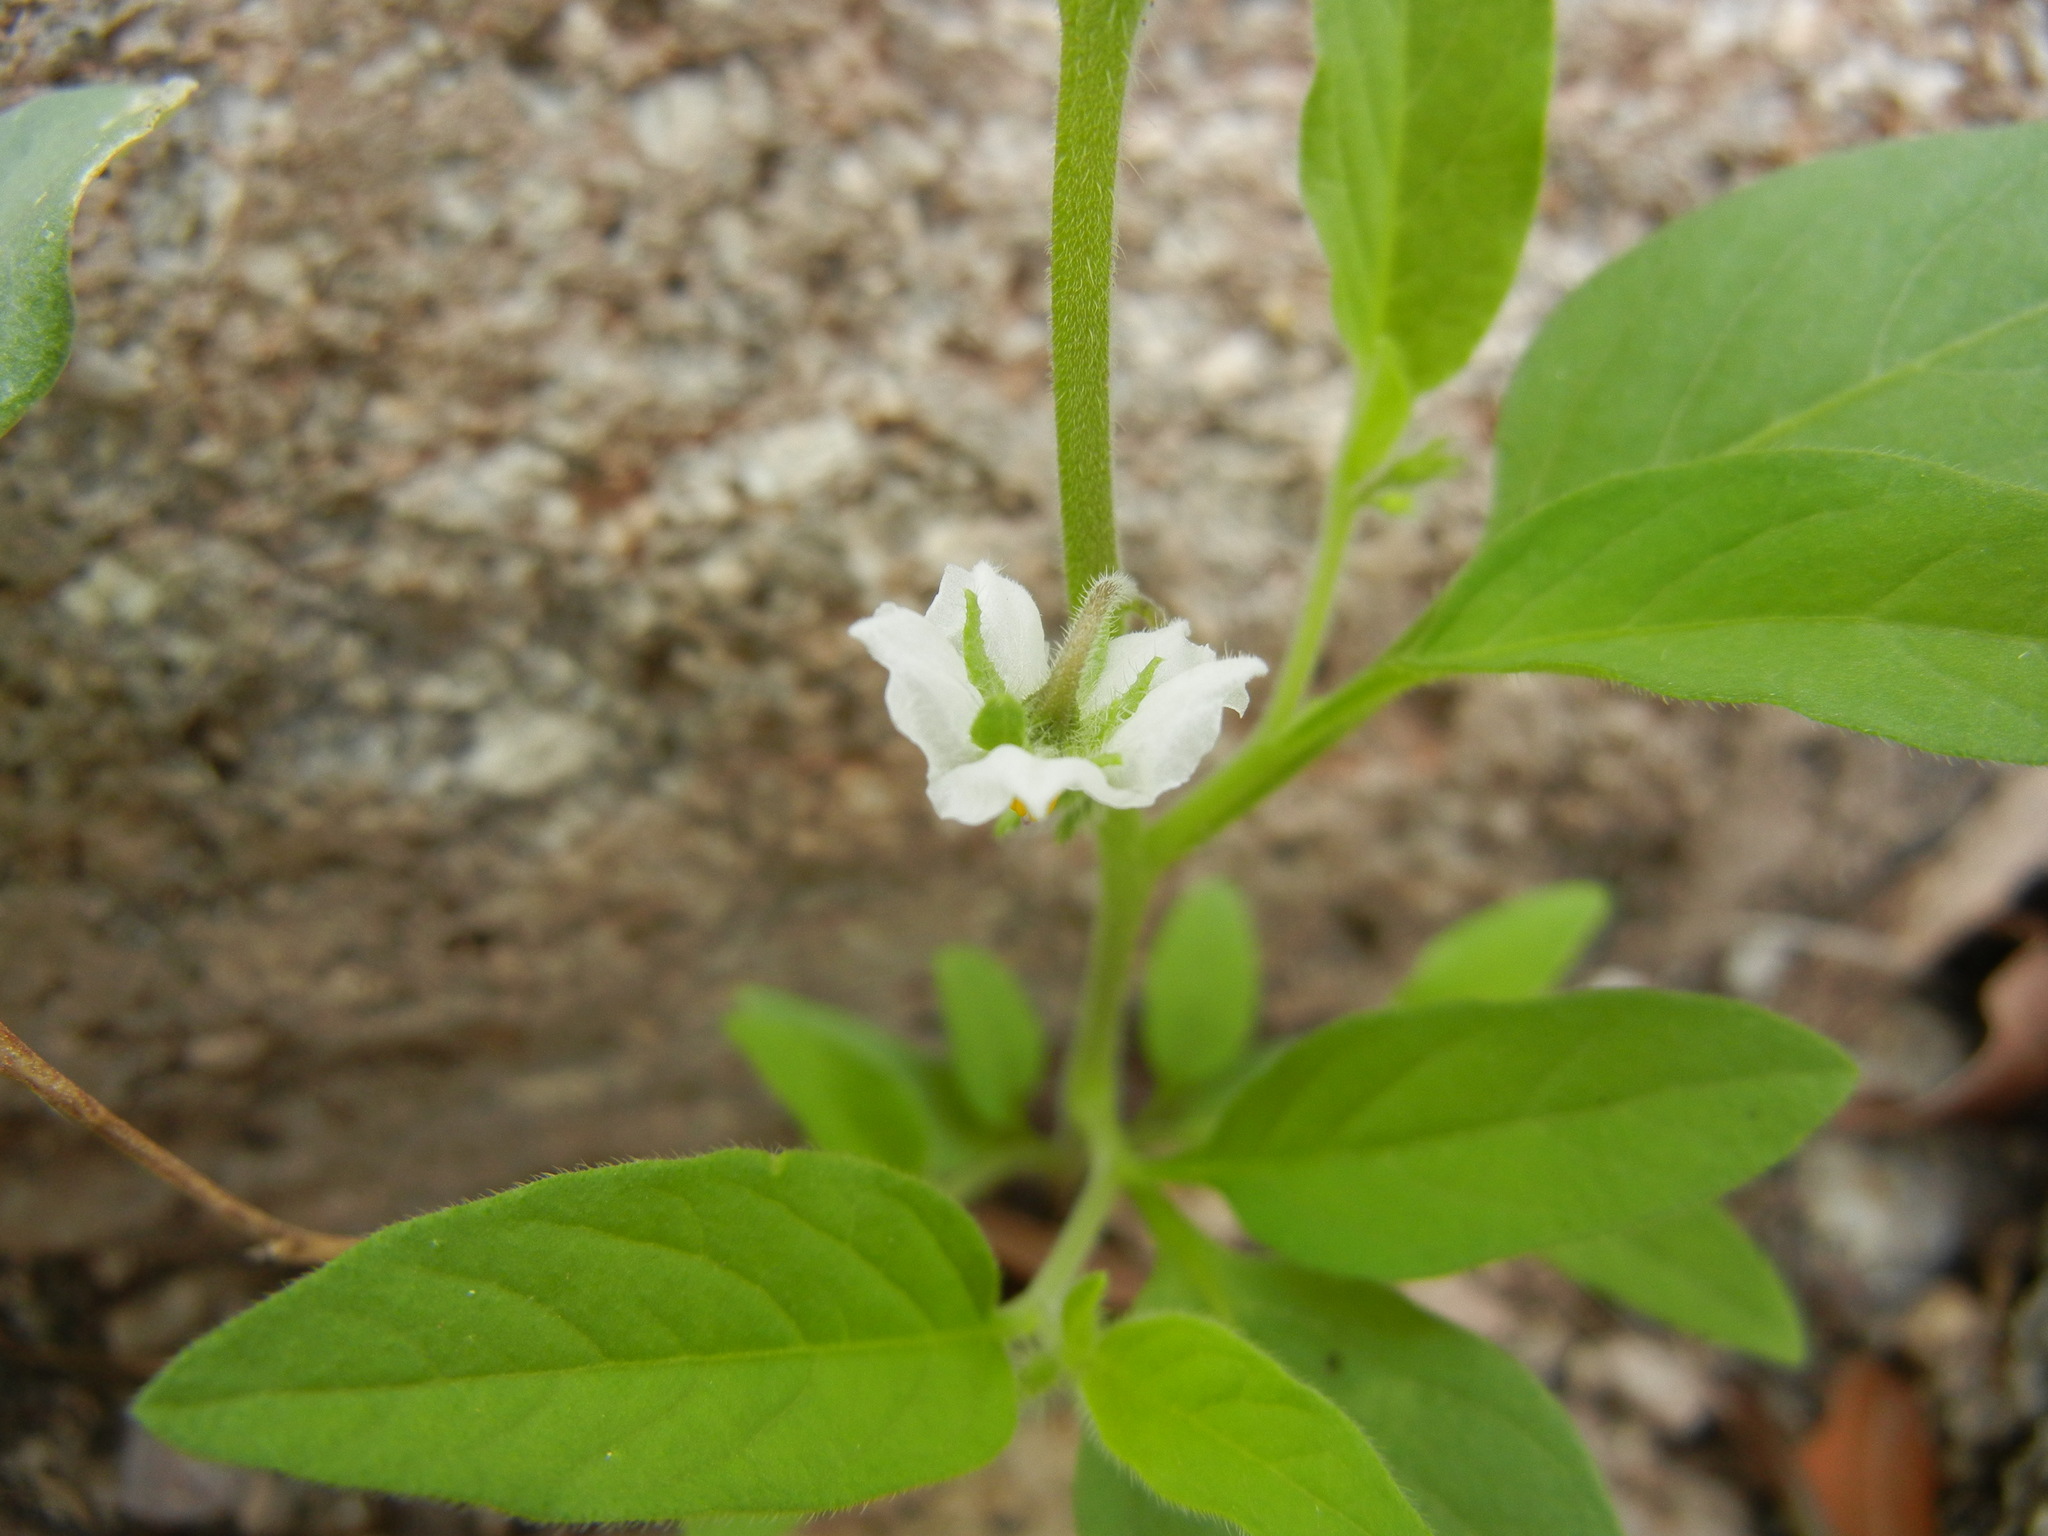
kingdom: Plantae
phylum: Tracheophyta
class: Magnoliopsida
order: Solanales
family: Solanaceae
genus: Solanum
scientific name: Solanum deflexum
